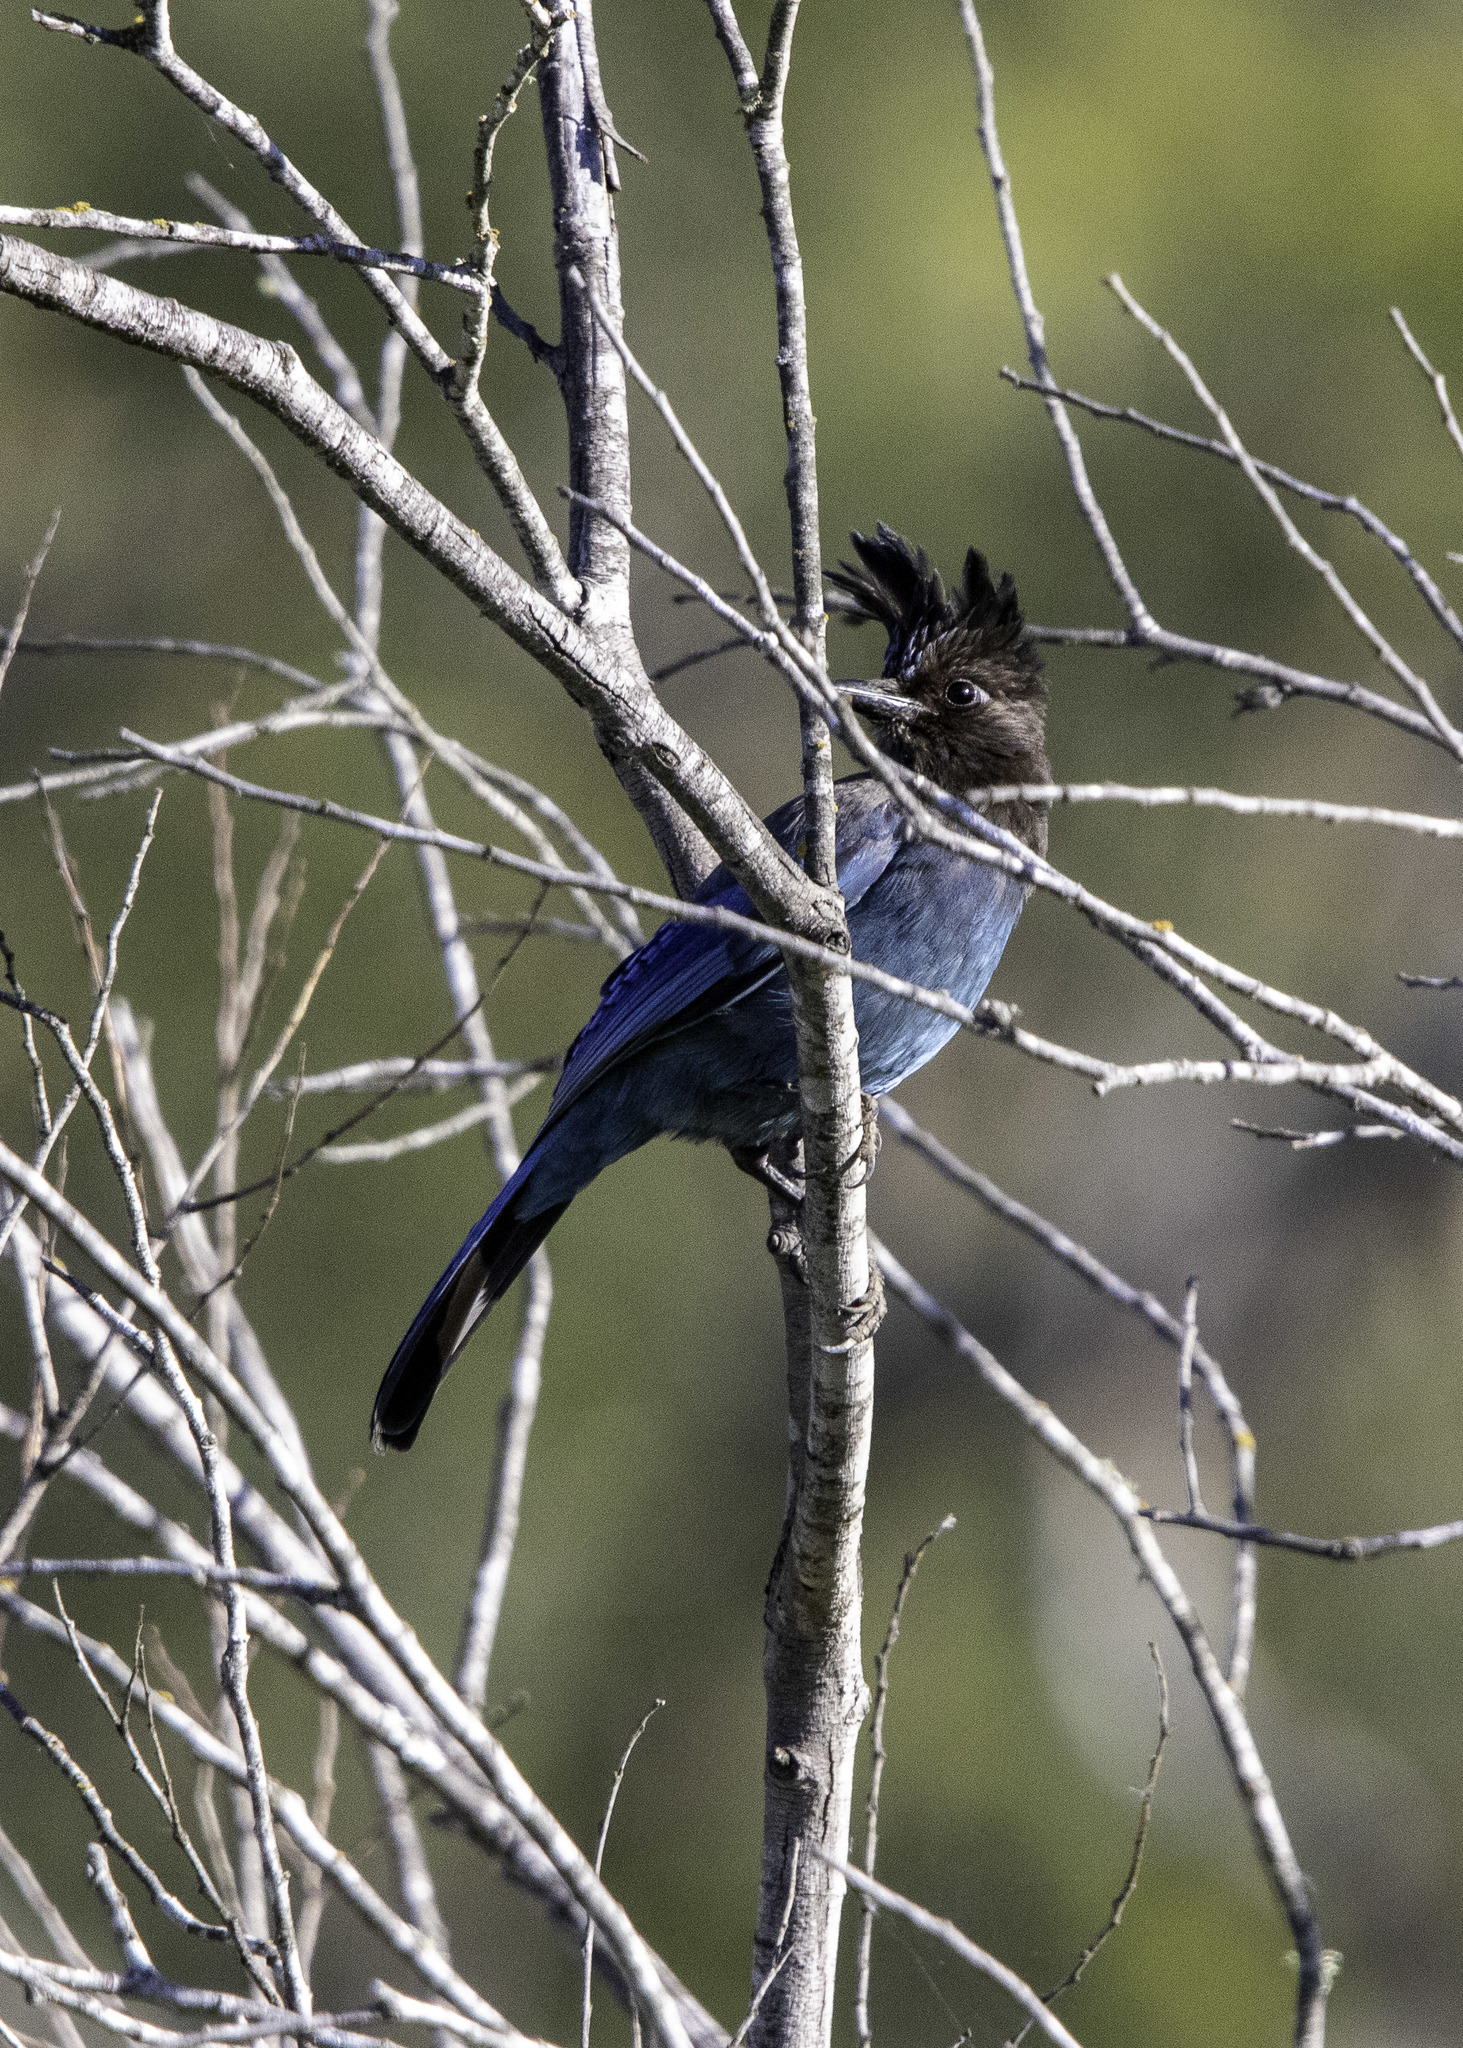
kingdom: Animalia
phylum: Chordata
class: Aves
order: Passeriformes
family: Corvidae
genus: Cyanocitta
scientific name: Cyanocitta stelleri
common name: Steller's jay
